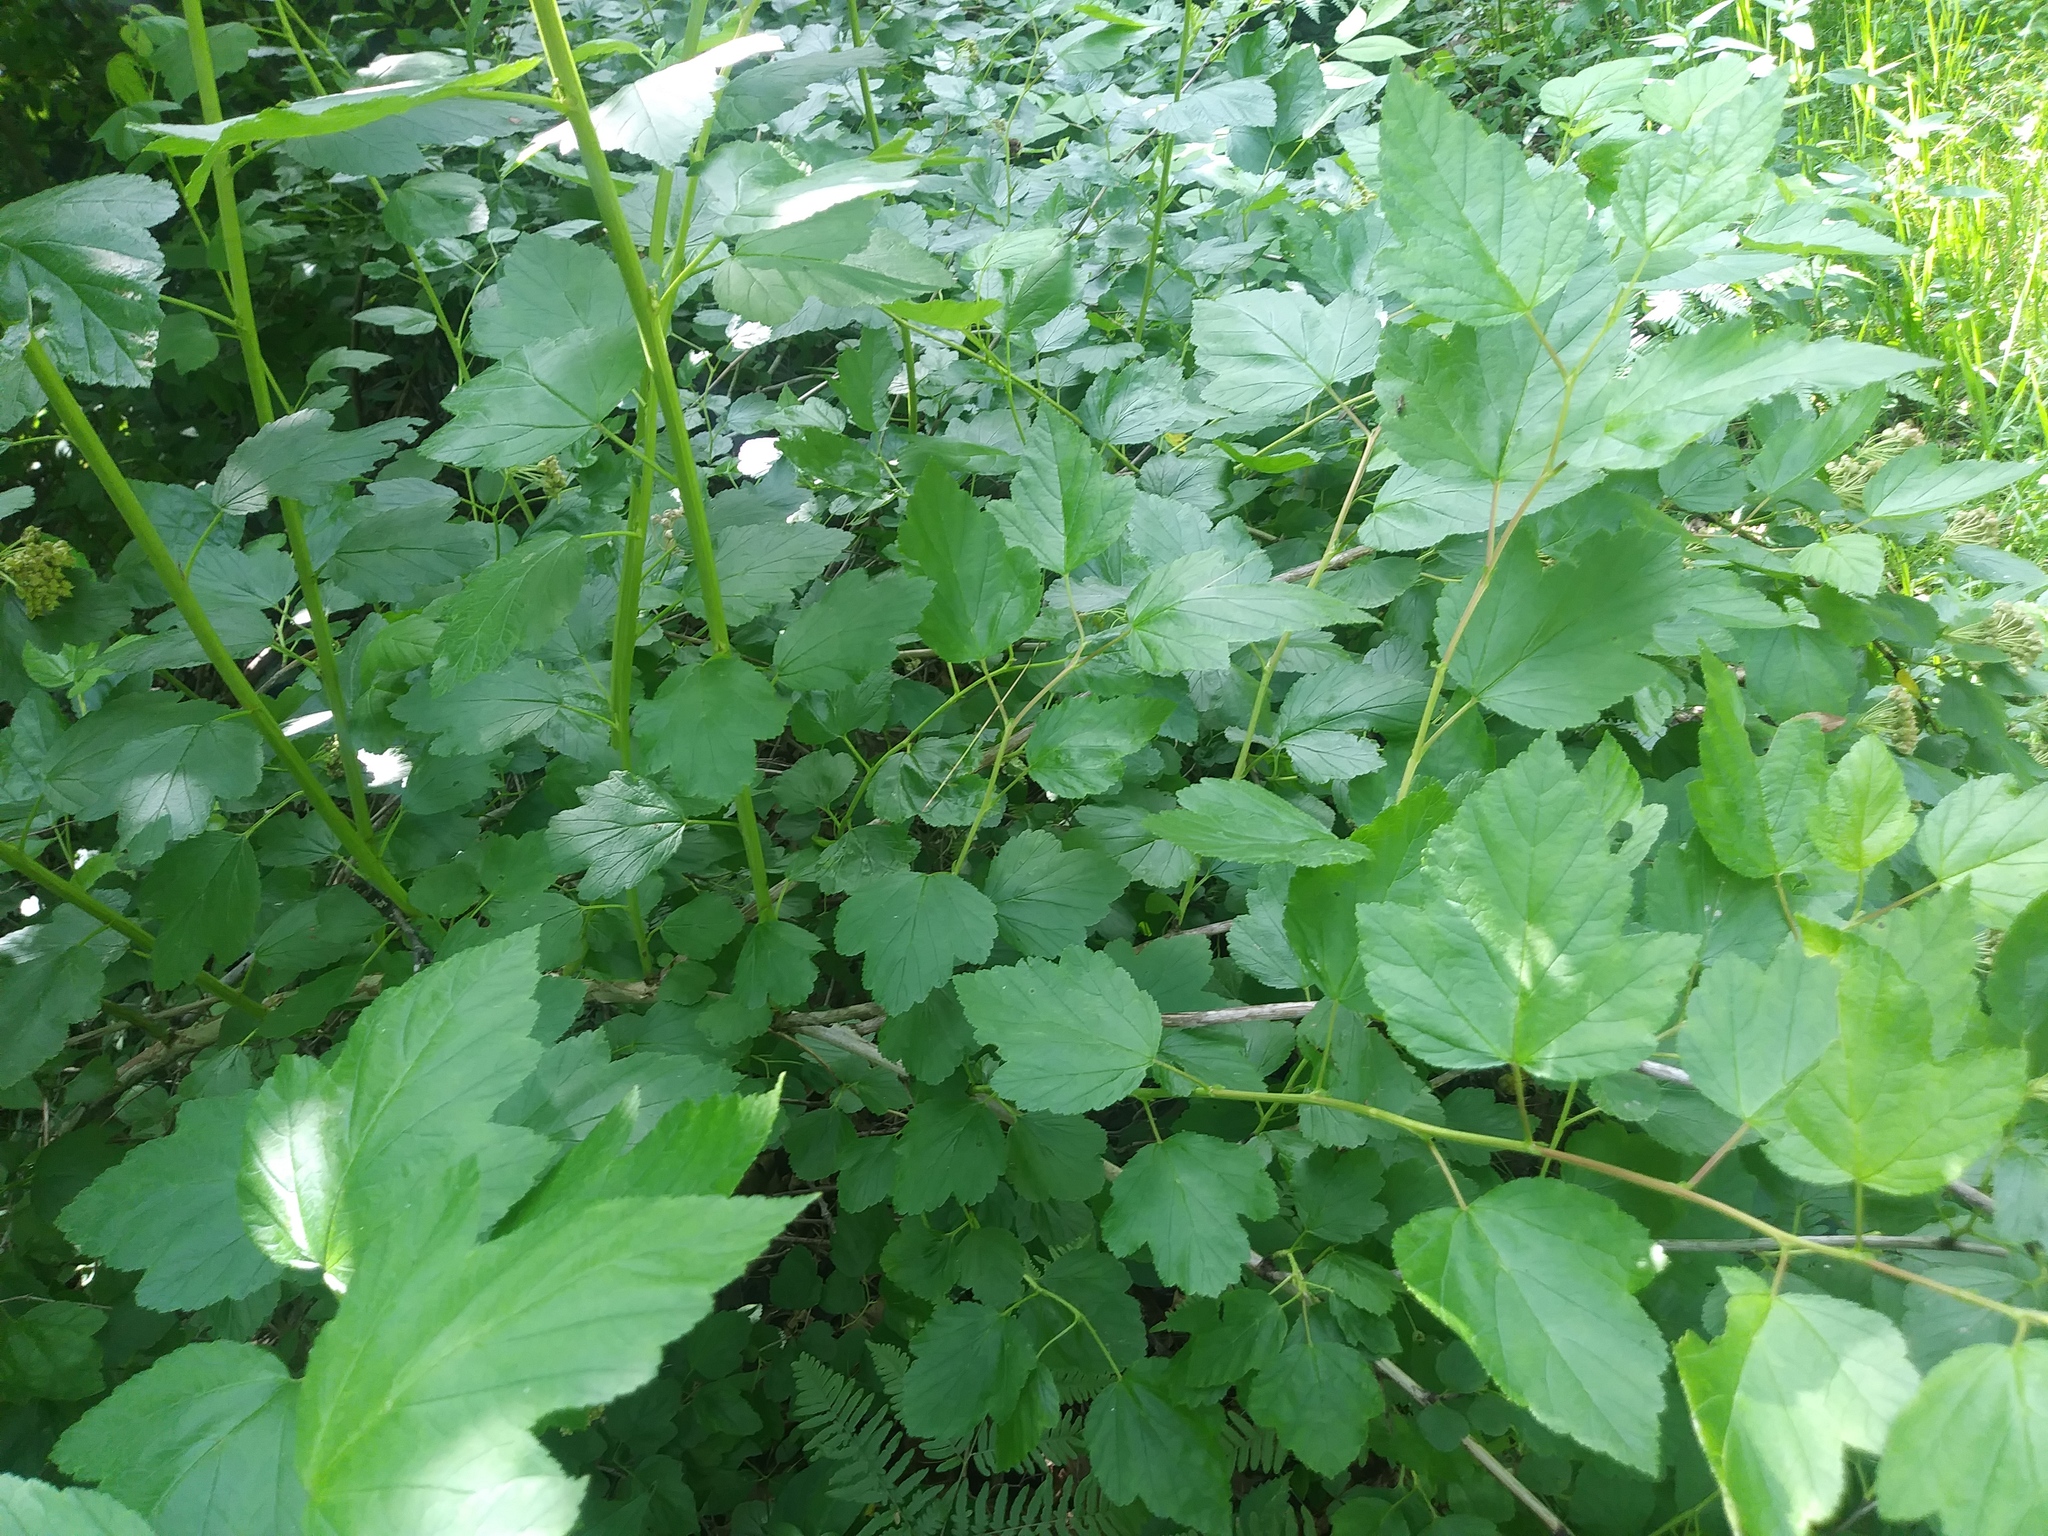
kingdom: Plantae
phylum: Tracheophyta
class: Magnoliopsida
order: Rosales
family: Rosaceae
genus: Physocarpus
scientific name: Physocarpus intermedius
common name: Midwestern ninebark
